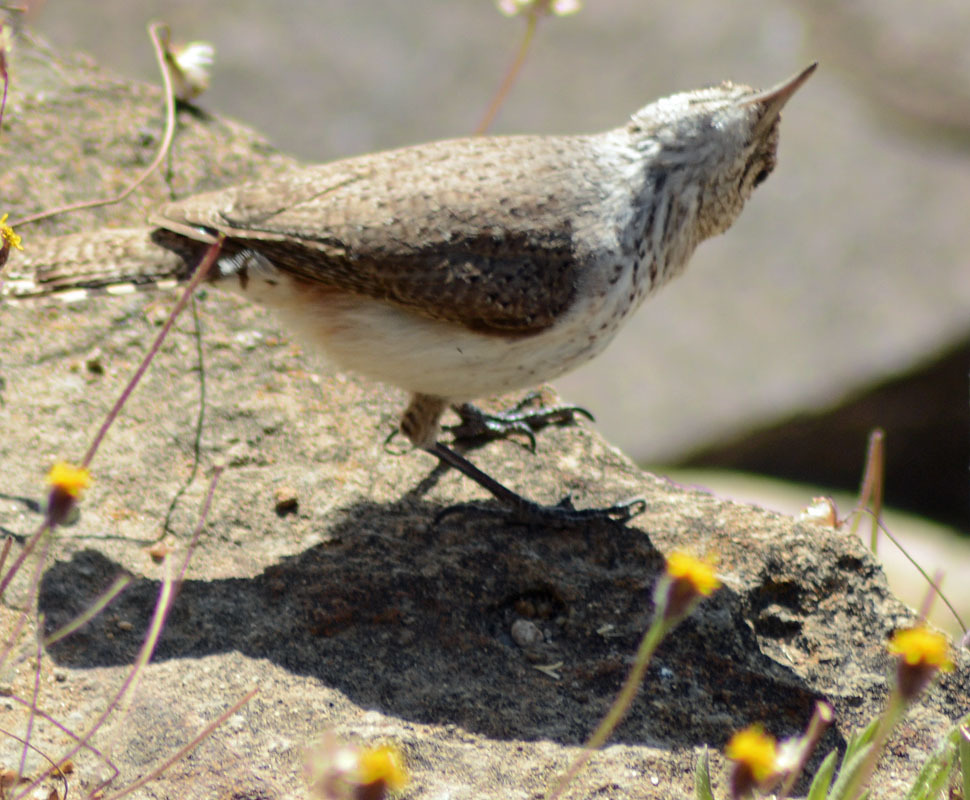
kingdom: Animalia
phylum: Chordata
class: Aves
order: Passeriformes
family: Troglodytidae
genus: Salpinctes
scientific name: Salpinctes obsoletus
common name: Rock wren
